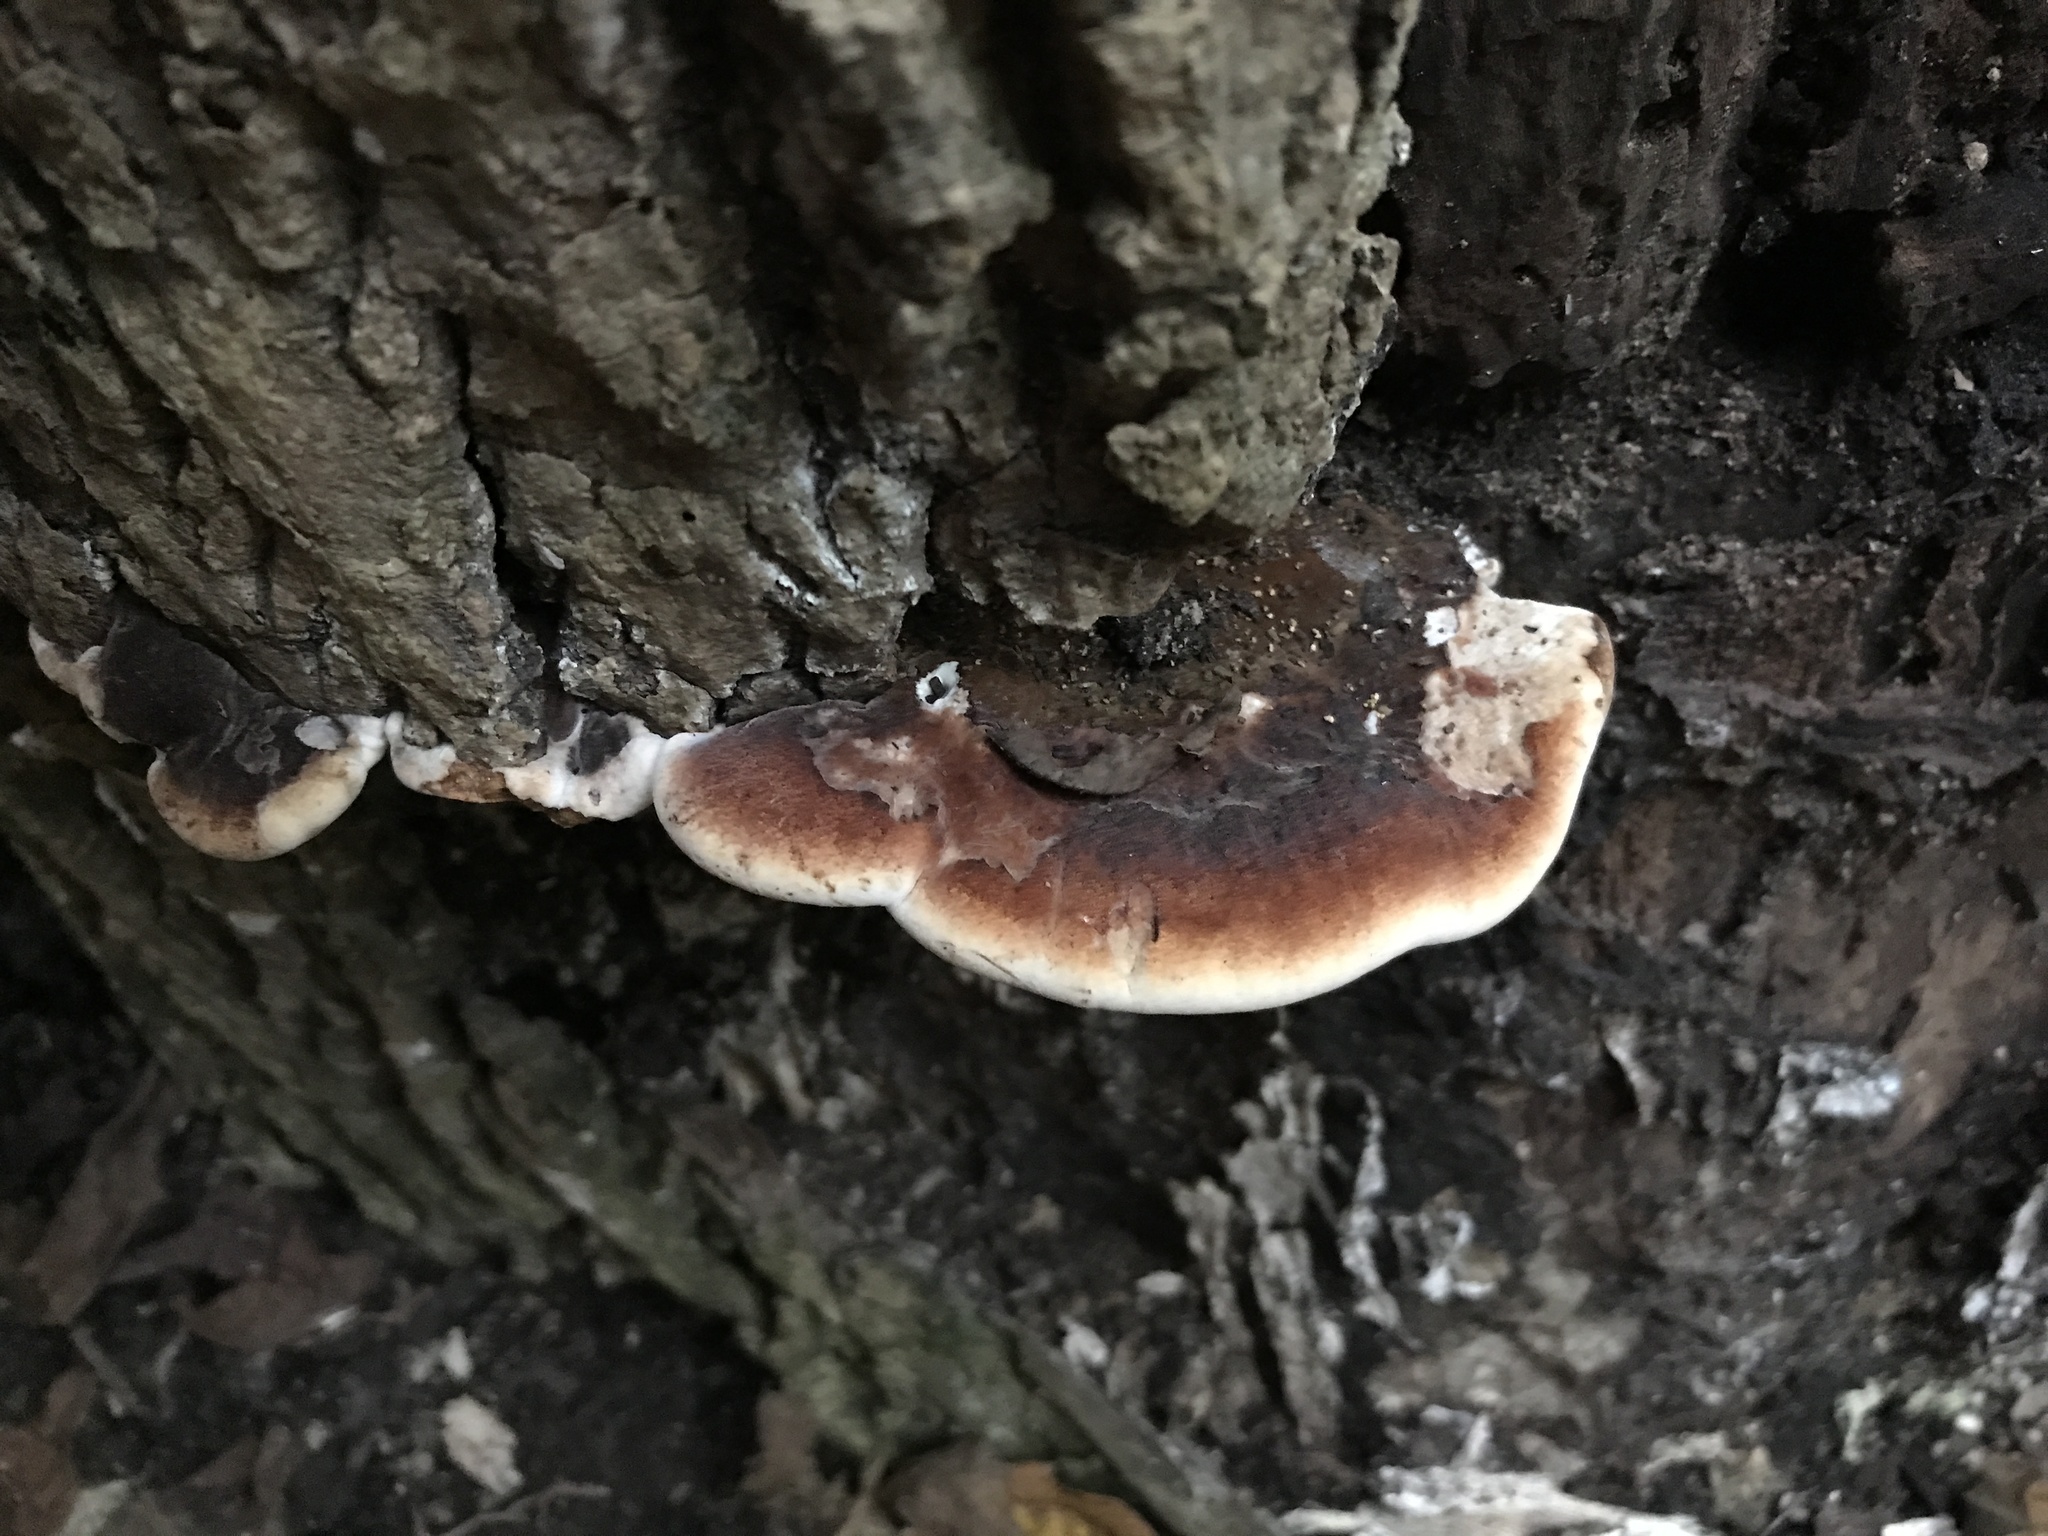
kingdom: Fungi
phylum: Basidiomycota
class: Agaricomycetes
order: Polyporales
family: Ischnodermataceae
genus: Ischnoderma
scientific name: Ischnoderma resinosum
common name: Resinous polypore
